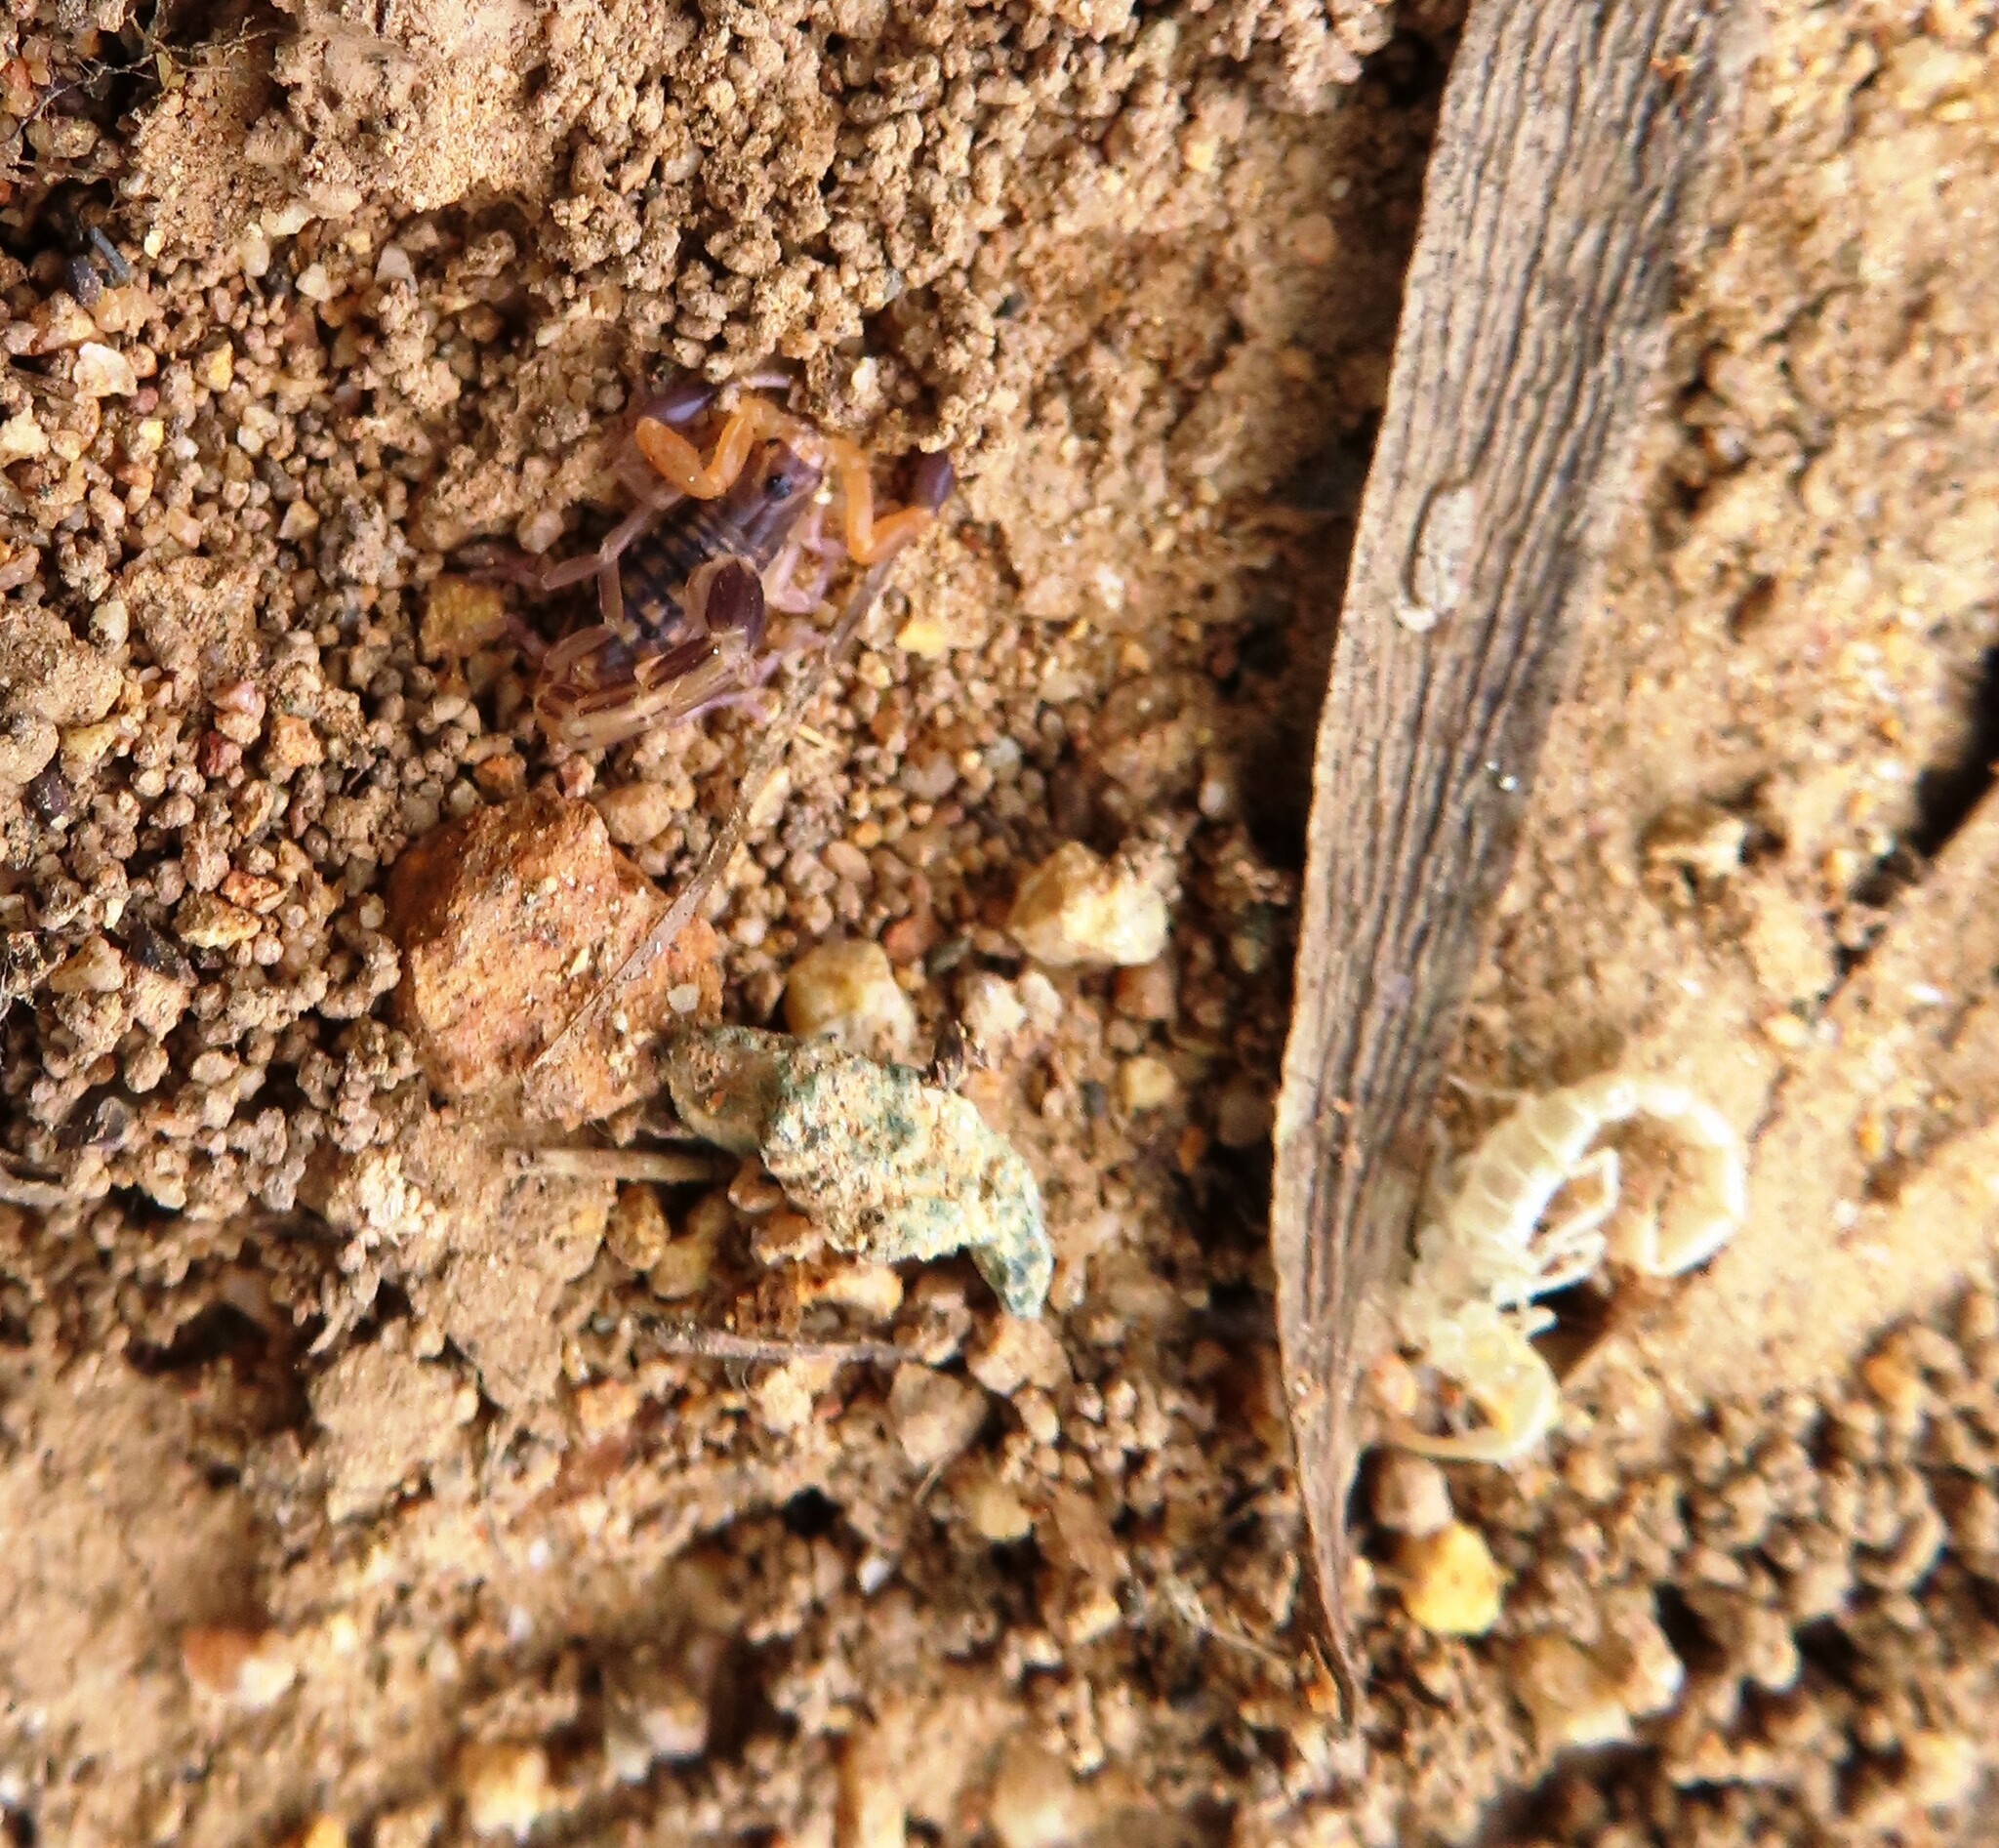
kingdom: Animalia
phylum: Arthropoda
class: Arachnida
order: Scorpiones
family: Buthidae
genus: Uroplectes
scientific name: Uroplectes lineatus
